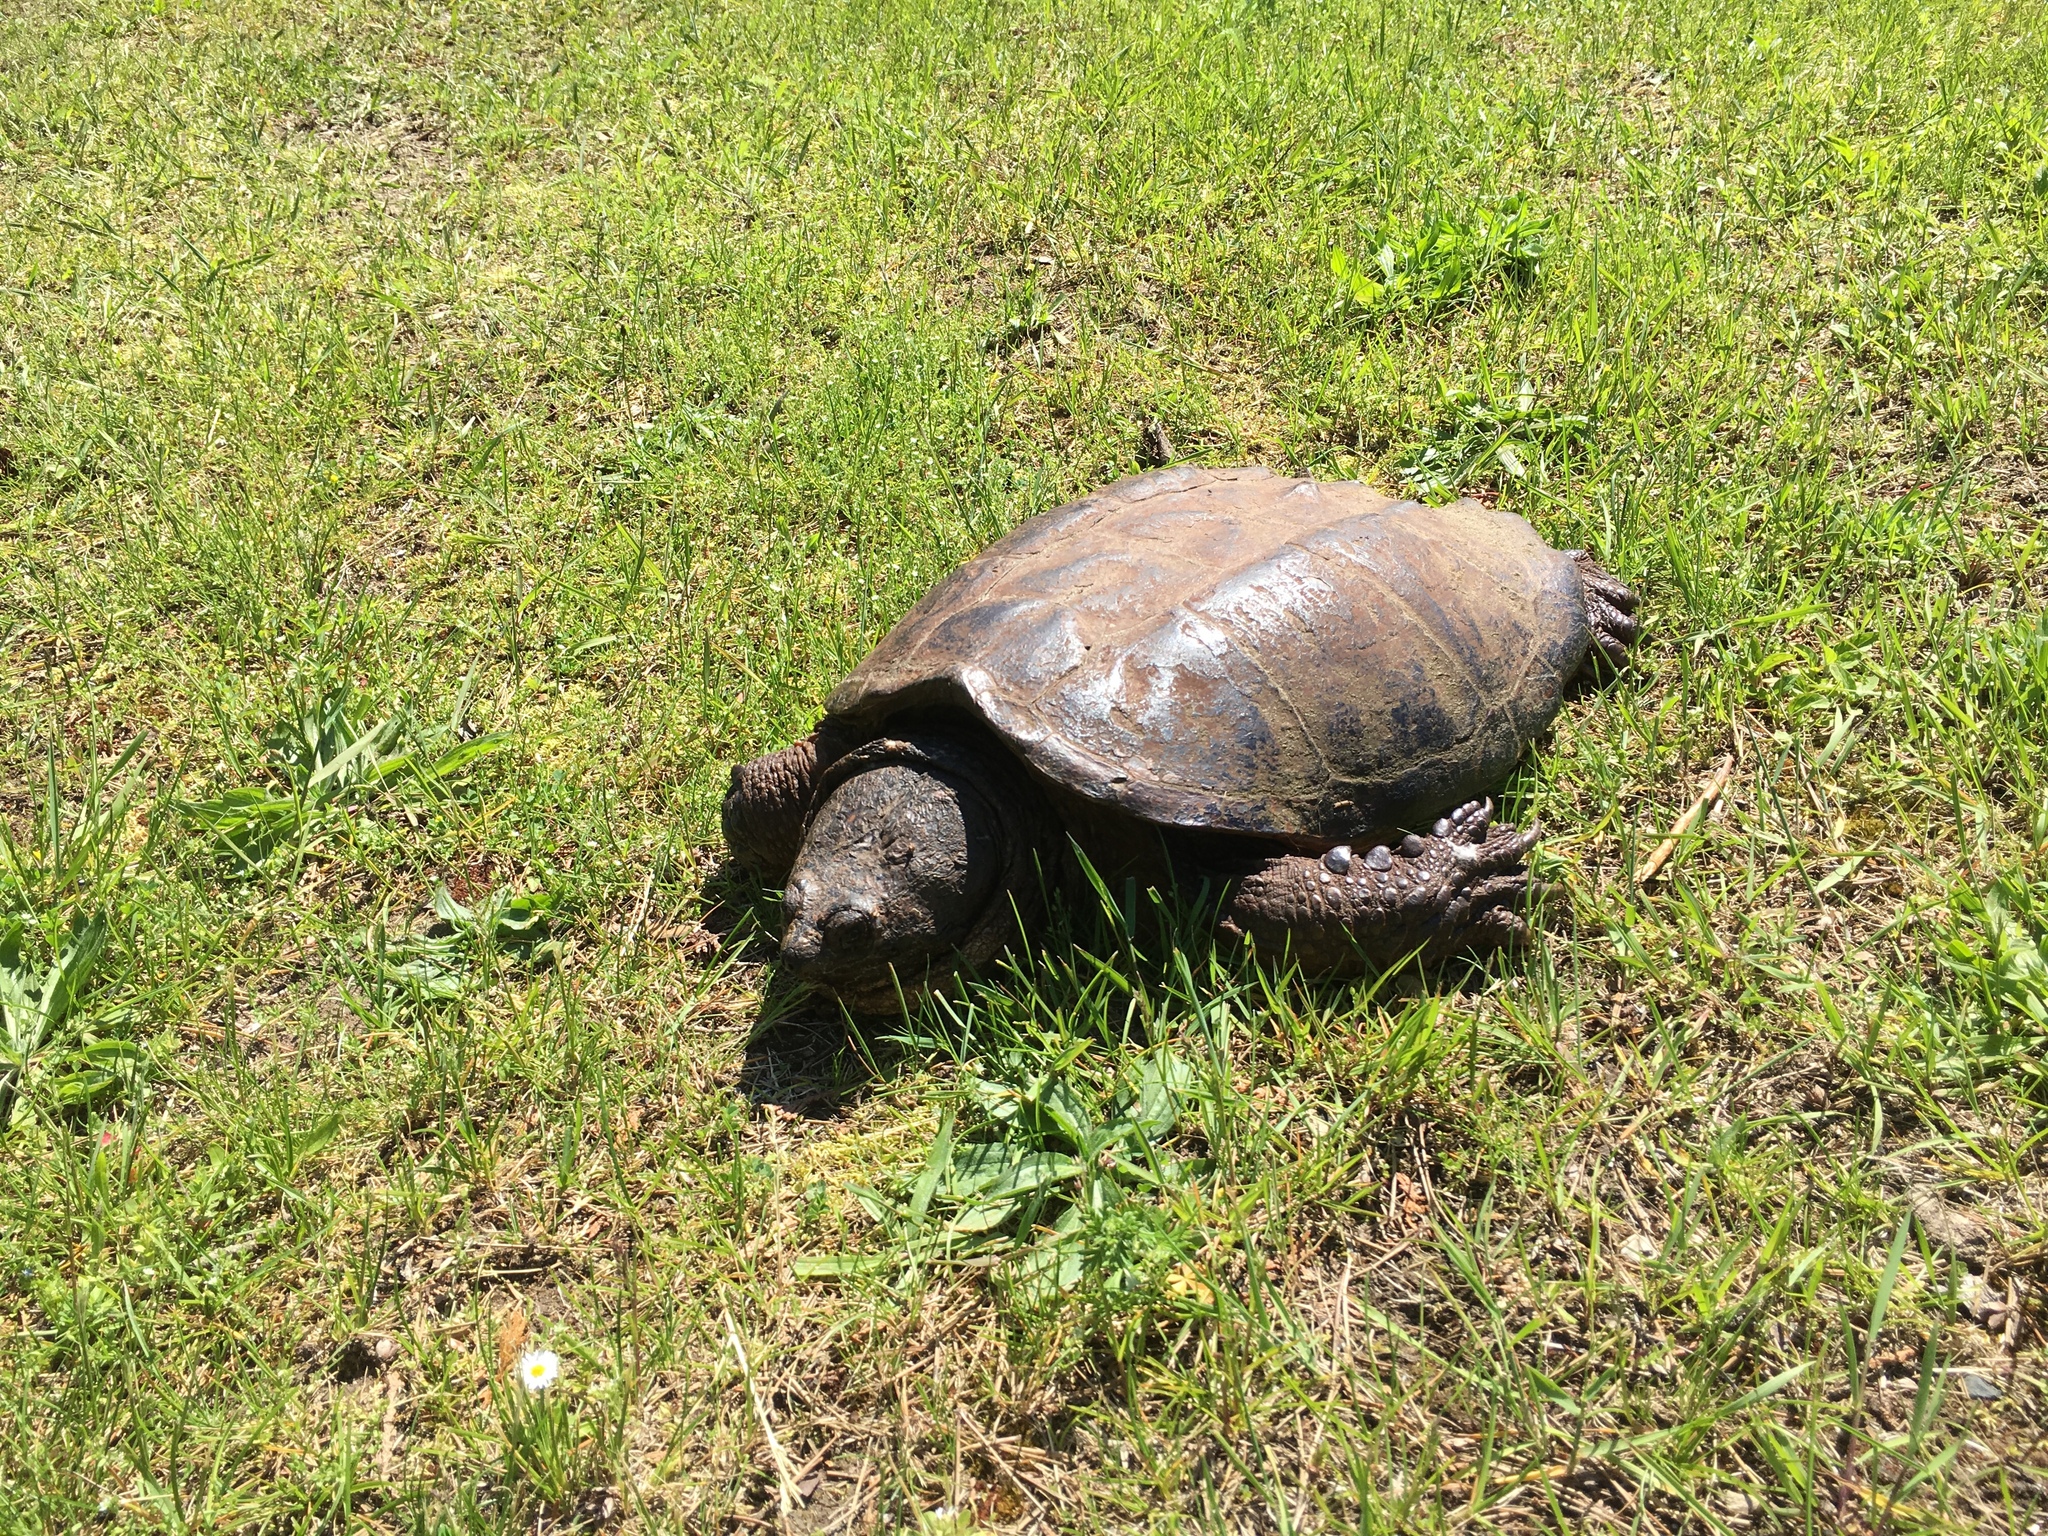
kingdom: Animalia
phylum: Chordata
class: Testudines
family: Chelydridae
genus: Chelydra
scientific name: Chelydra serpentina
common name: Common snapping turtle
